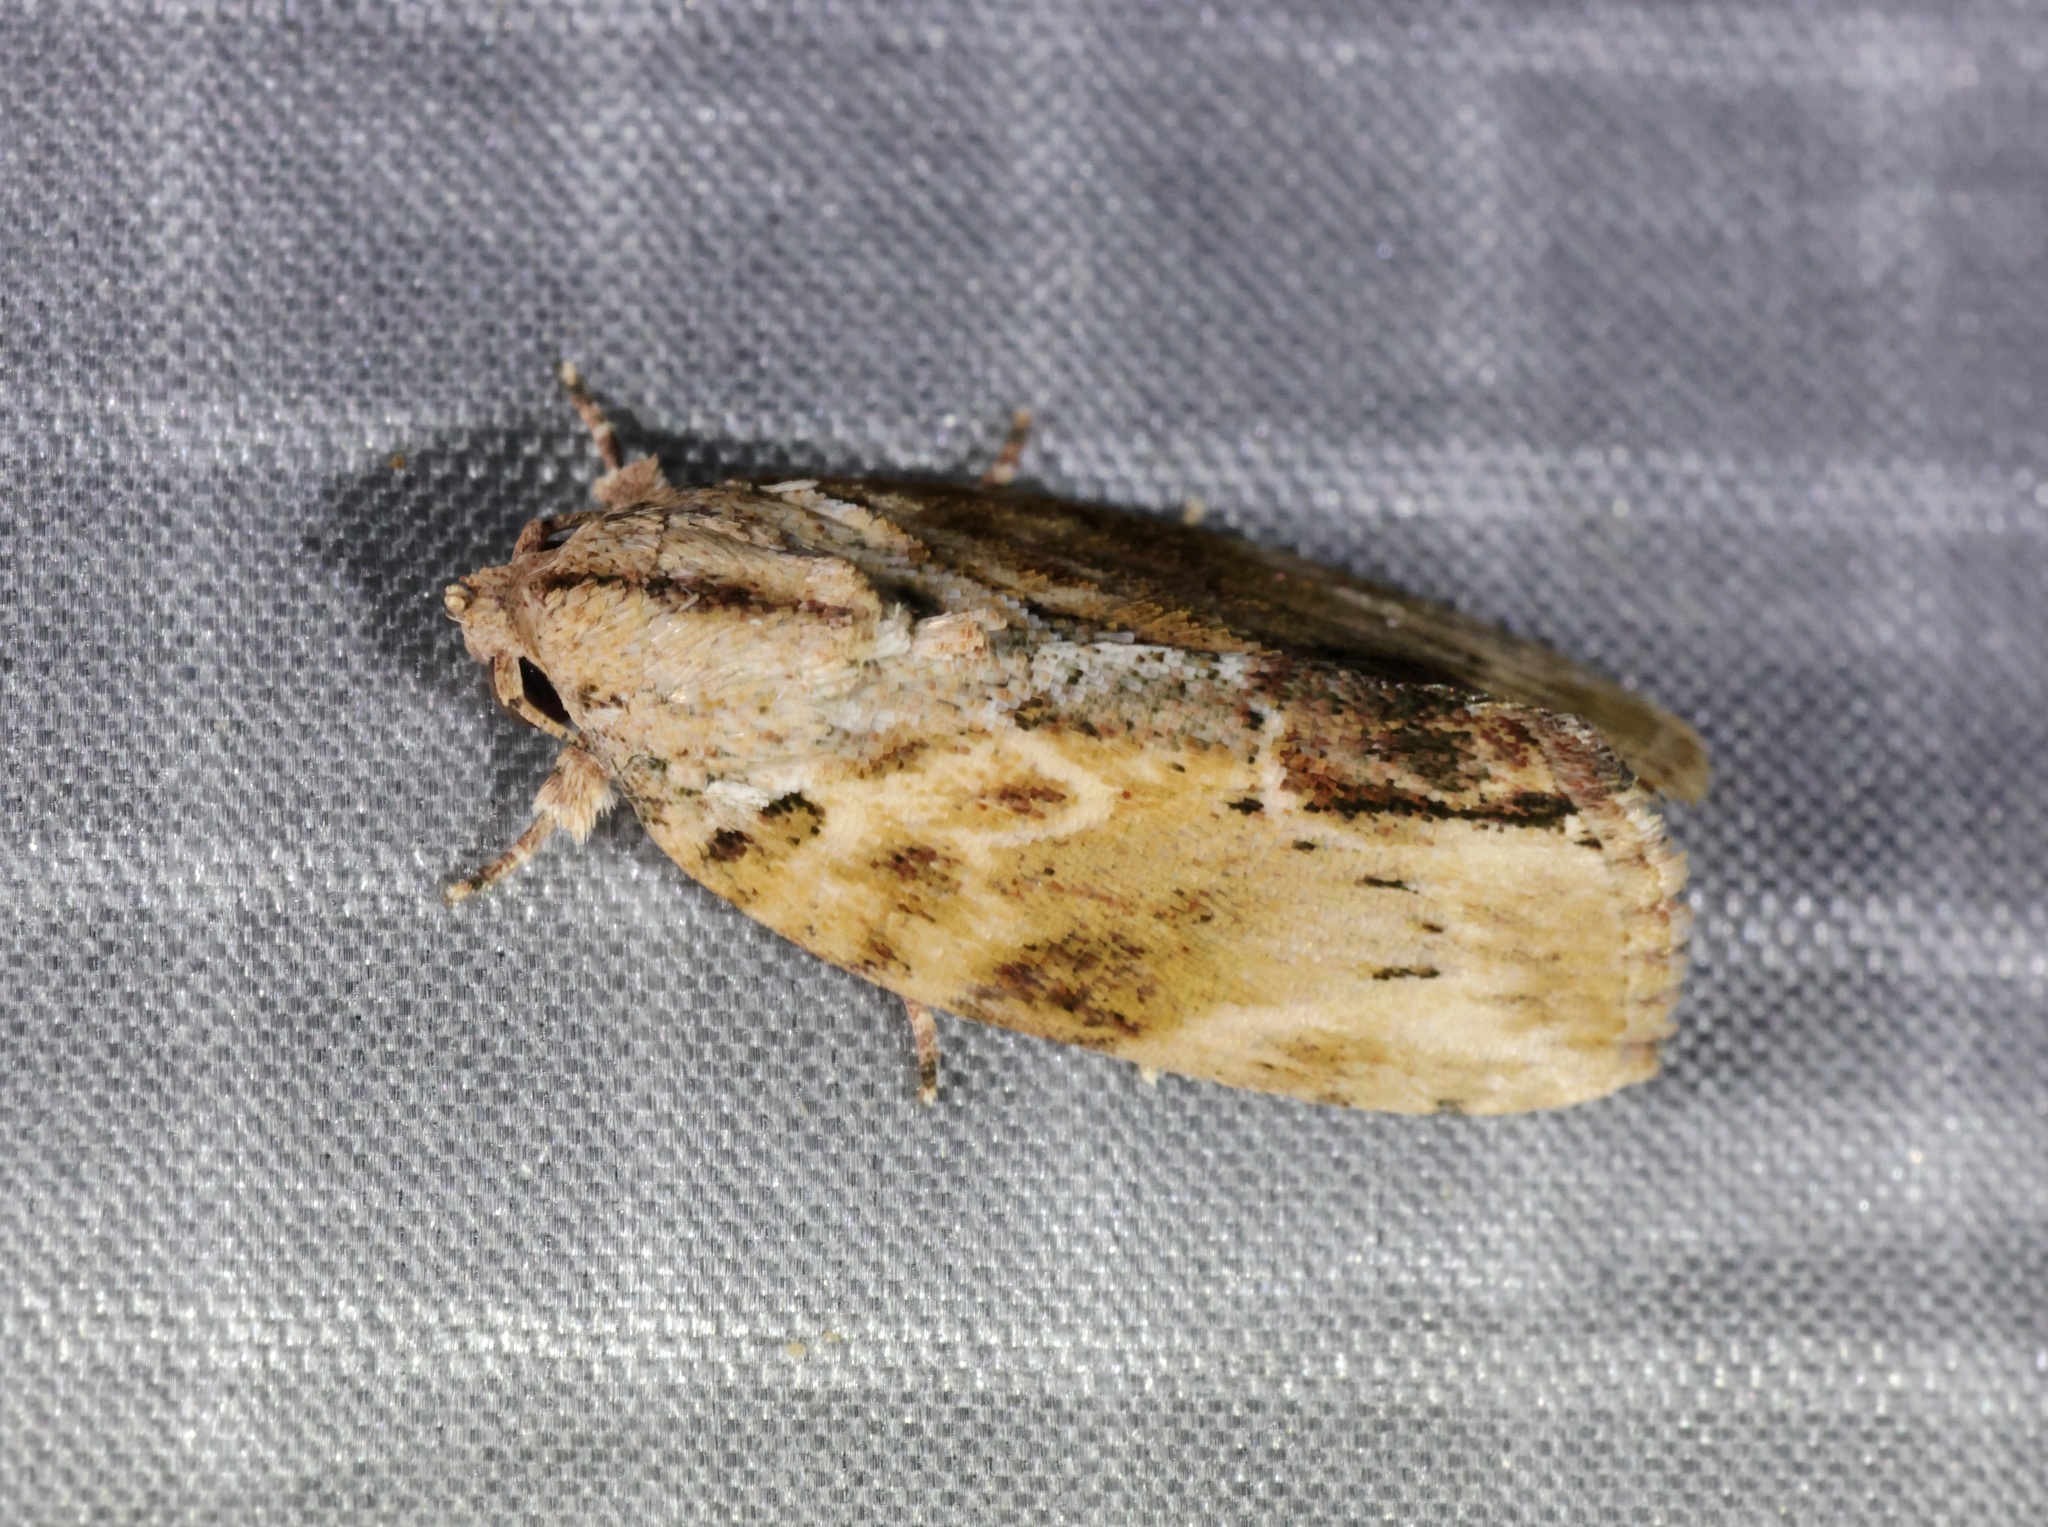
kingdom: Animalia
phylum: Arthropoda
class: Insecta
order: Lepidoptera
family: Nolidae
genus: Etanna
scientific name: Etanna breviuscula
